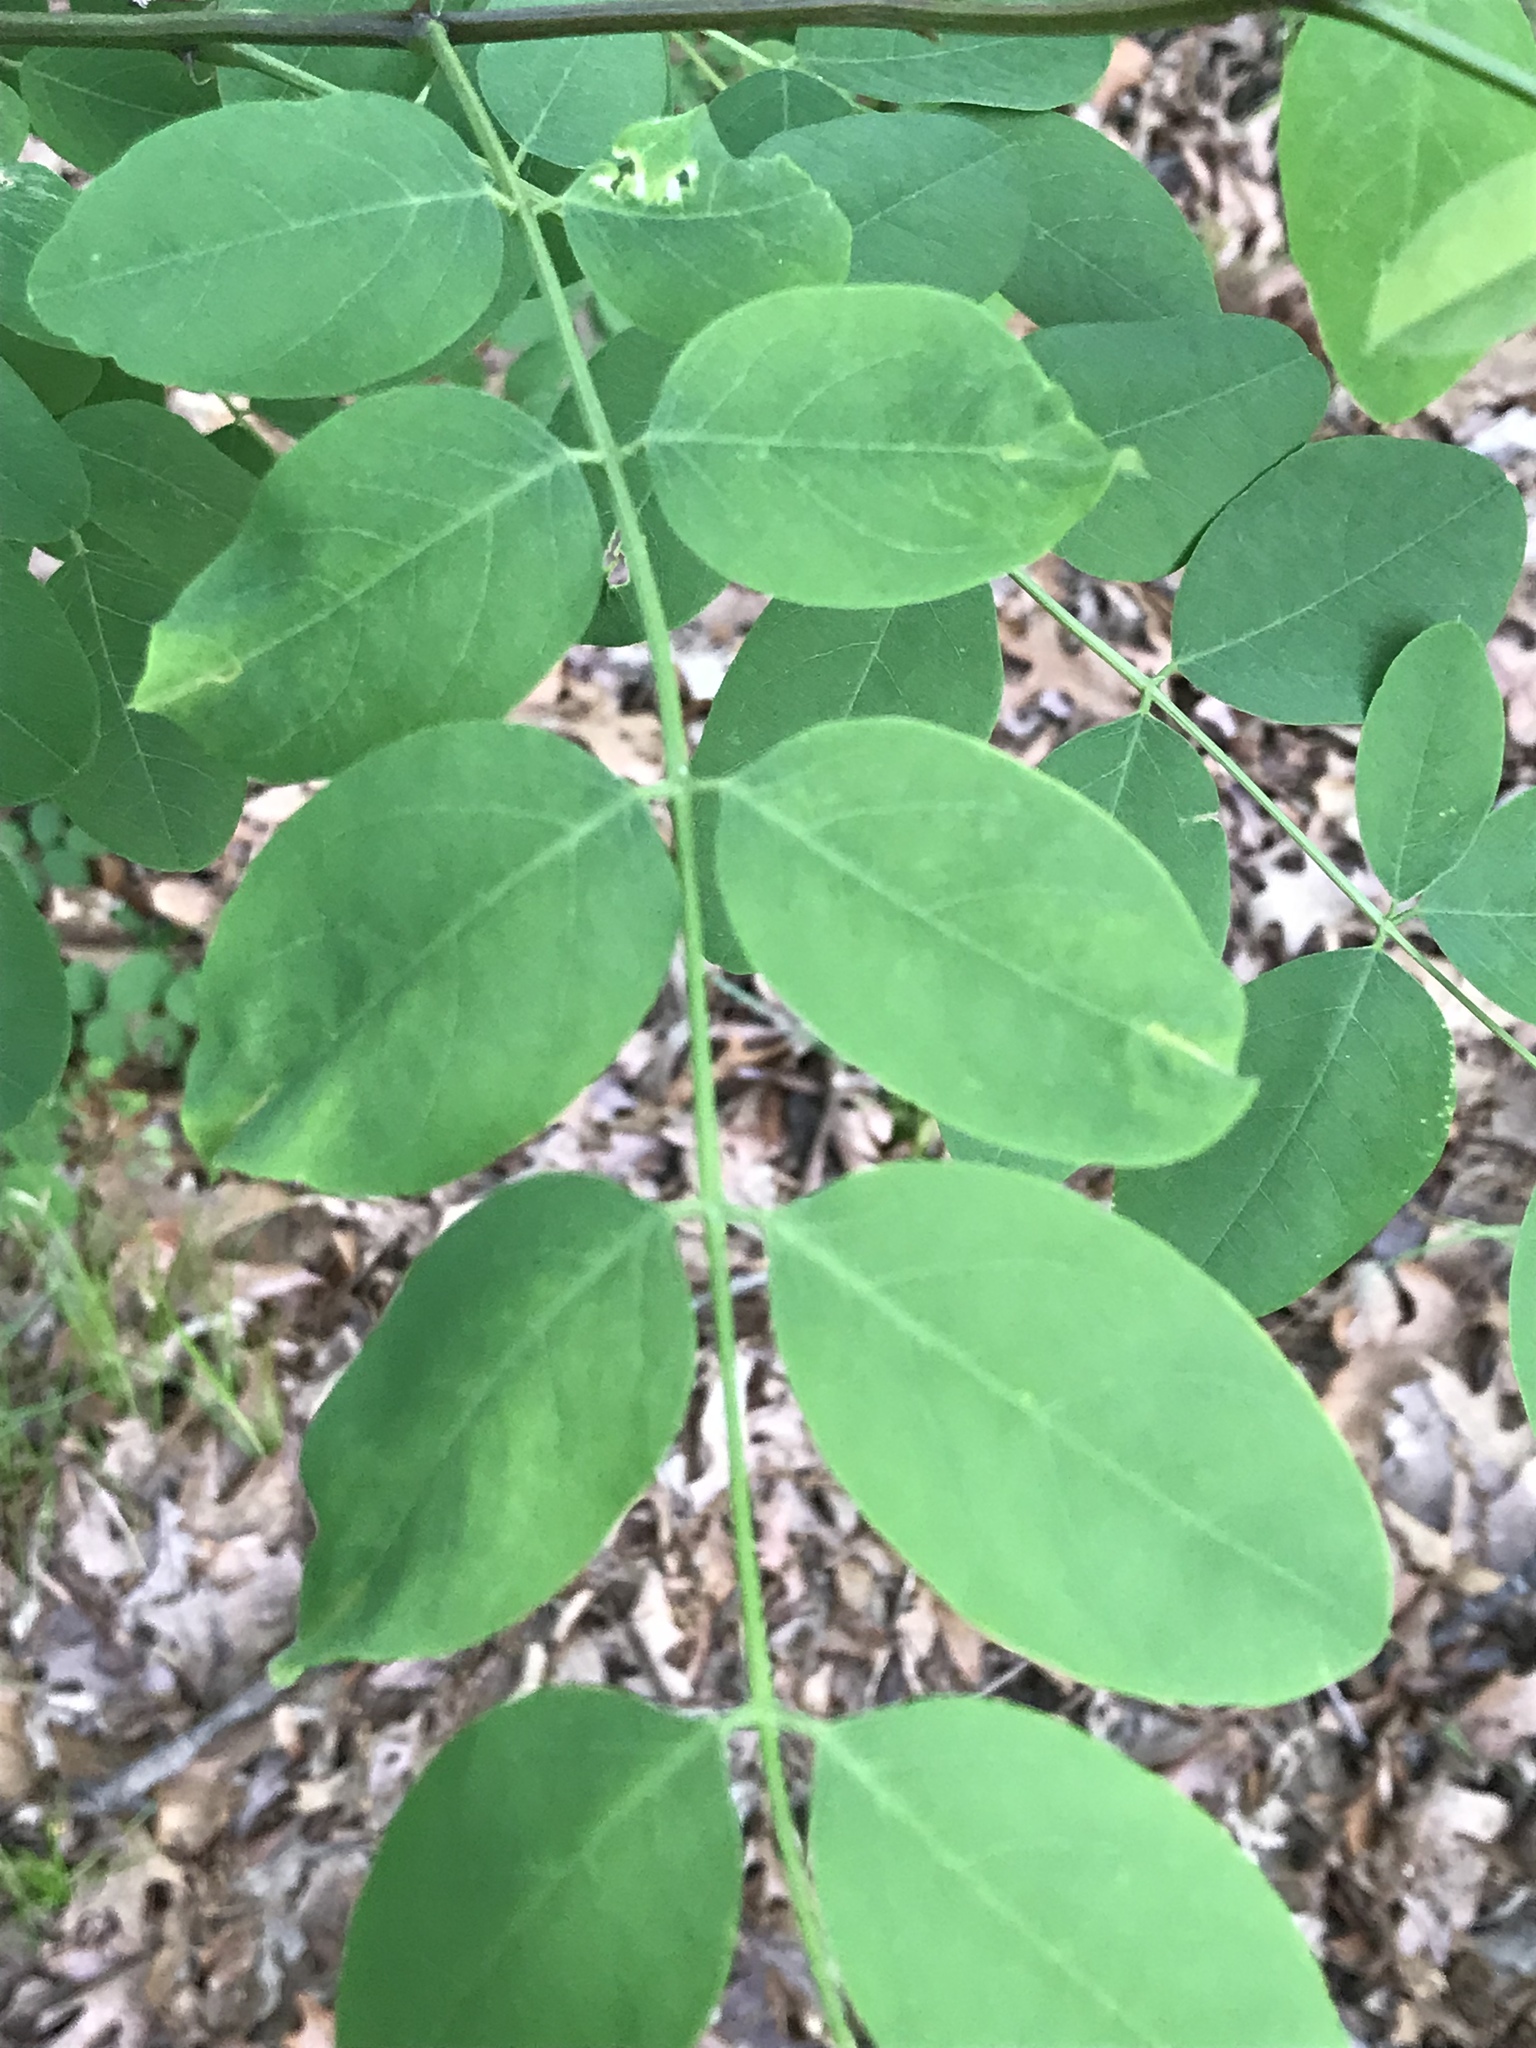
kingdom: Plantae
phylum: Tracheophyta
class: Magnoliopsida
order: Fabales
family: Fabaceae
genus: Robinia
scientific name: Robinia pseudoacacia
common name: Black locust
